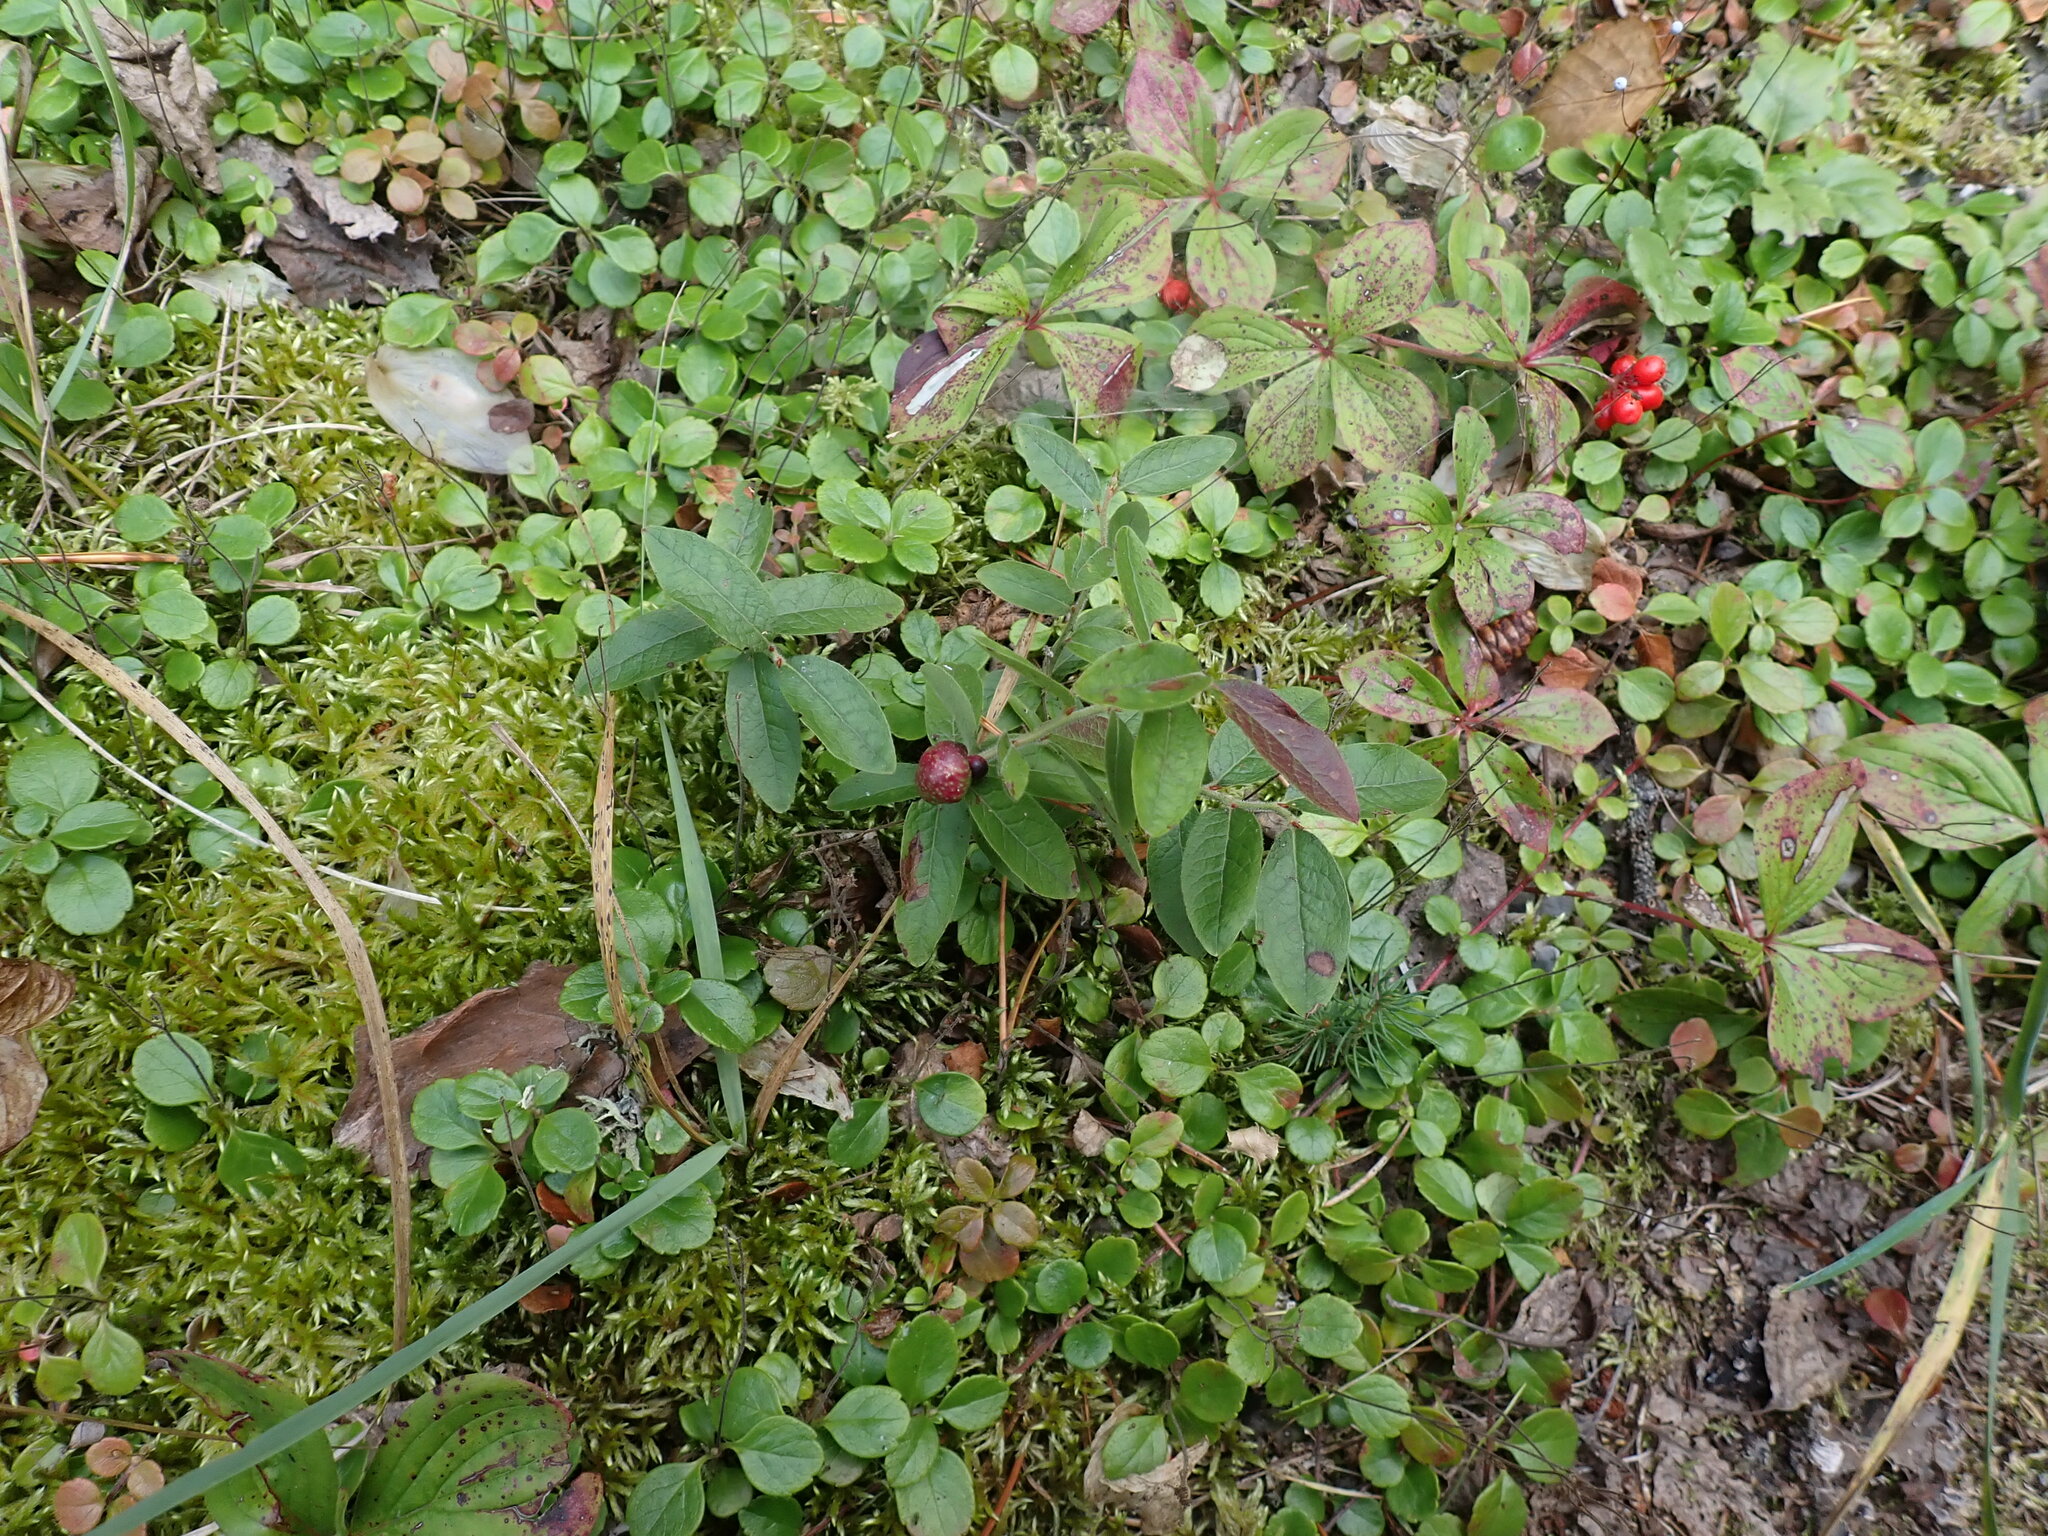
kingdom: Plantae
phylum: Tracheophyta
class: Magnoliopsida
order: Ericales
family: Ericaceae
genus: Vaccinium
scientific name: Vaccinium myrtilloides
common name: Canada blueberry
